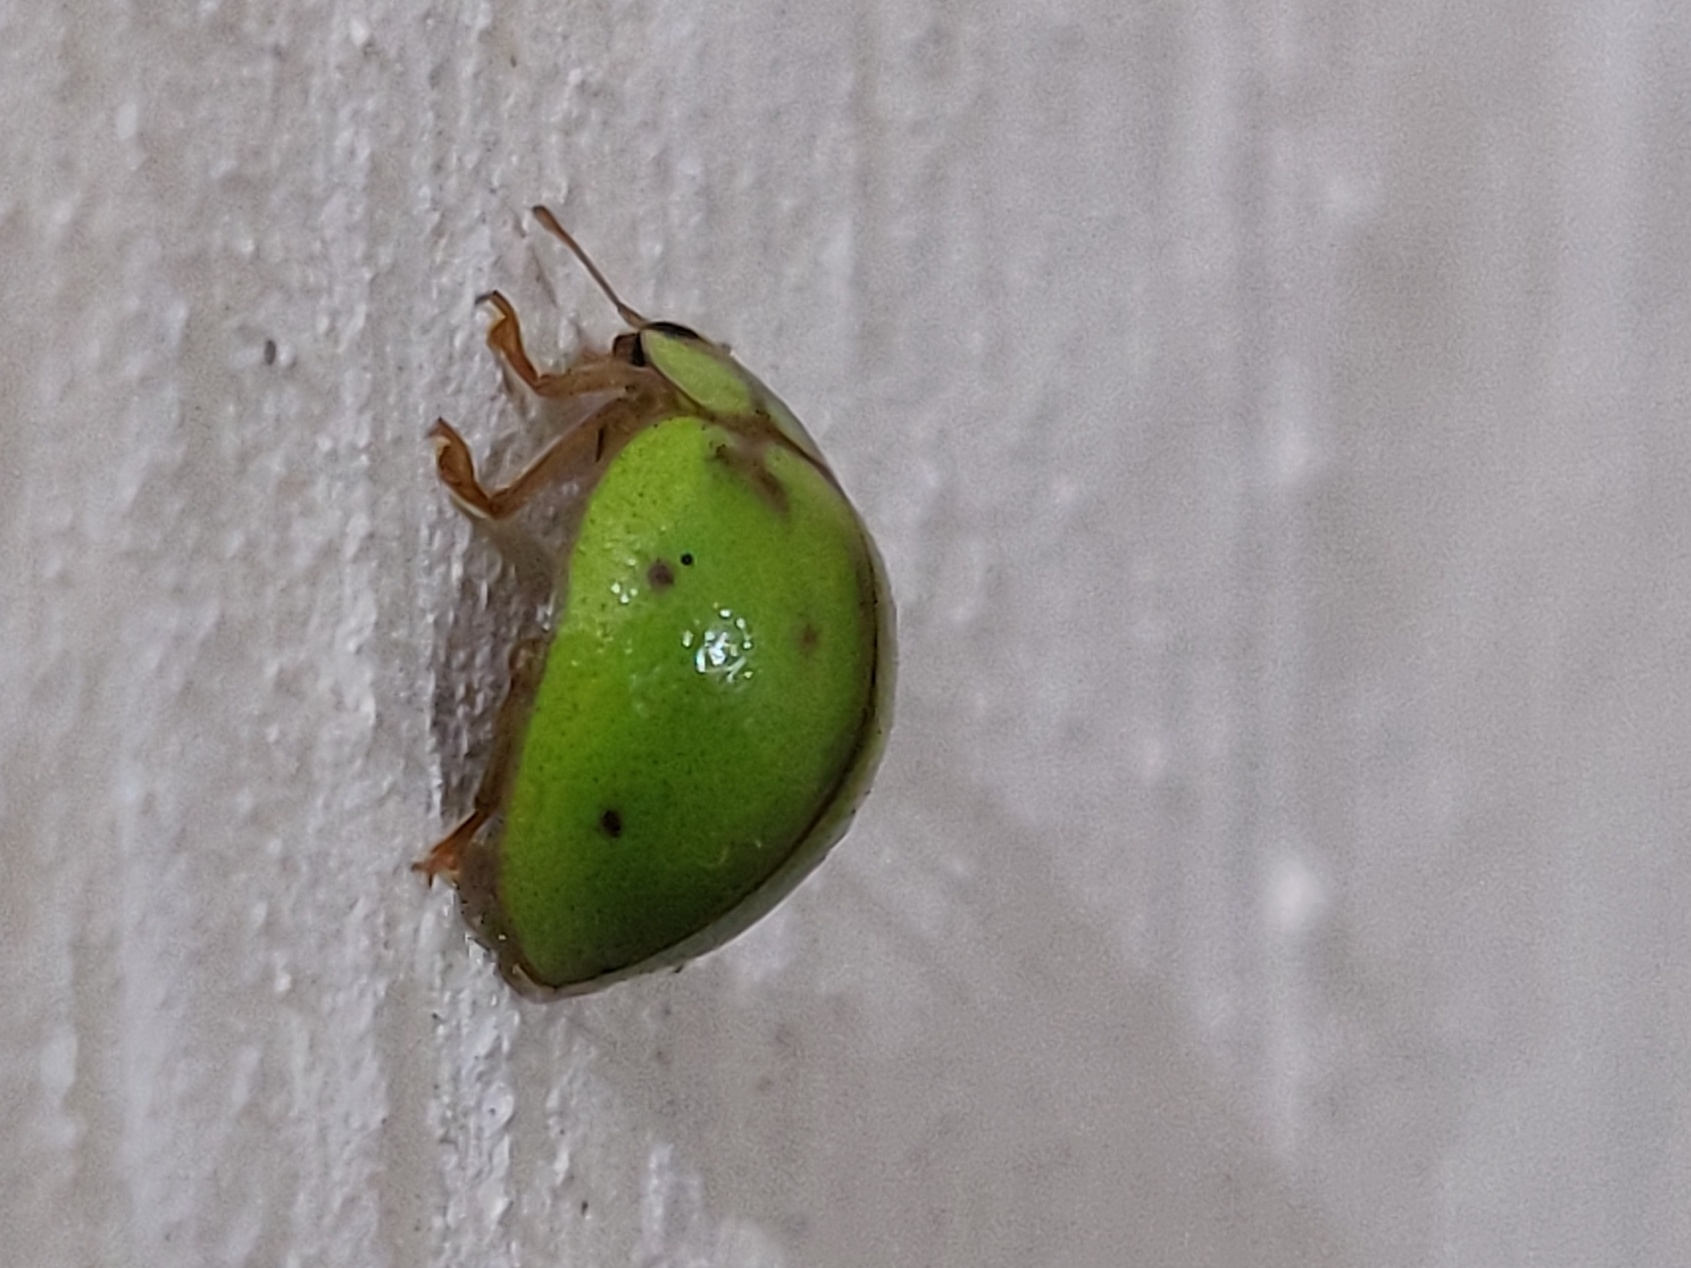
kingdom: Animalia
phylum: Arthropoda
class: Insecta
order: Coleoptera
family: Coccinellidae
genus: Calvia
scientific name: Calvia
